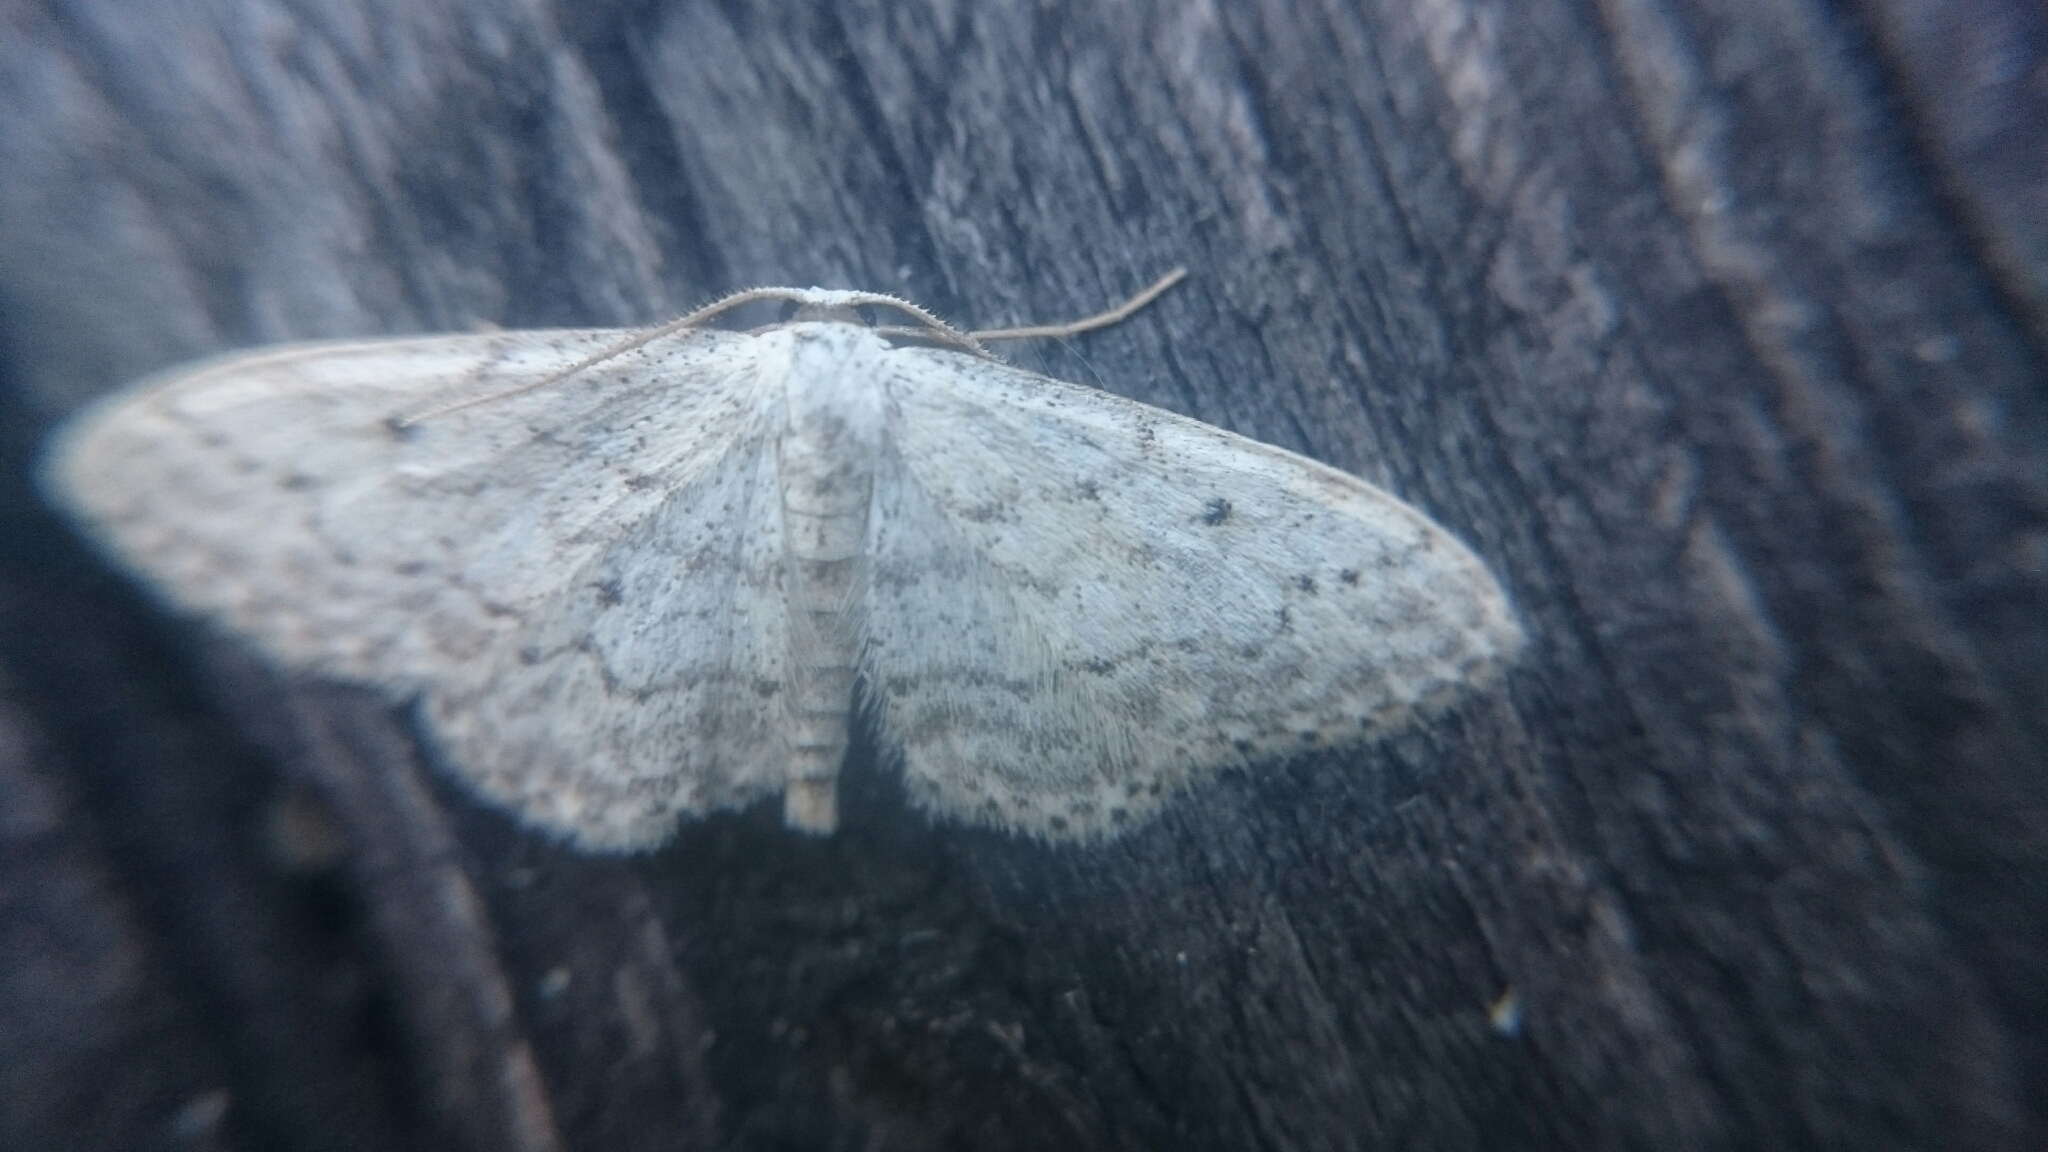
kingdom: Animalia
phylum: Arthropoda
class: Insecta
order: Lepidoptera
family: Geometridae
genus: Idaea
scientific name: Idaea seriata
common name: Small dusty wave
